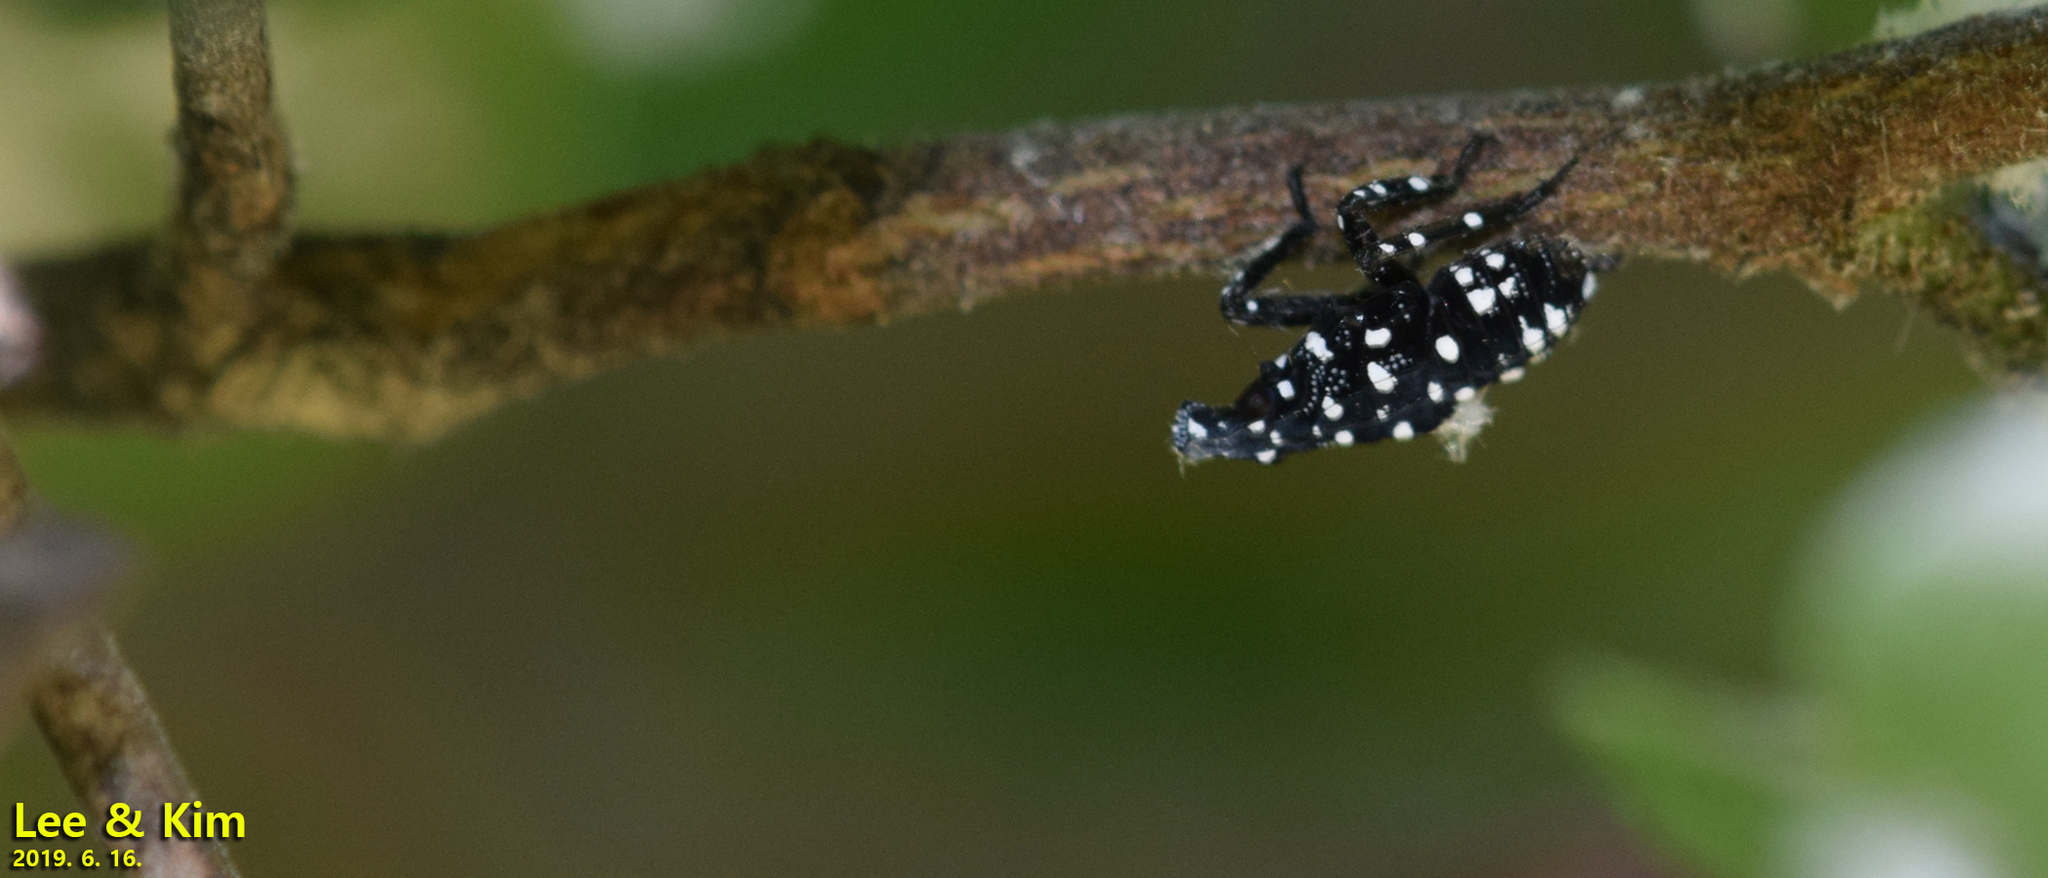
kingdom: Animalia
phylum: Arthropoda
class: Insecta
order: Hemiptera
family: Fulgoridae
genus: Lycorma
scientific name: Lycorma delicatula
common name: Spotted lanternfly
